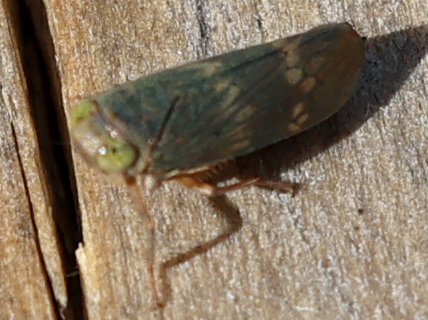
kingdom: Animalia
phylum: Arthropoda
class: Insecta
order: Hemiptera
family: Cicadellidae
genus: Jikradia
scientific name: Jikradia olitoria
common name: Coppery leafhopper
